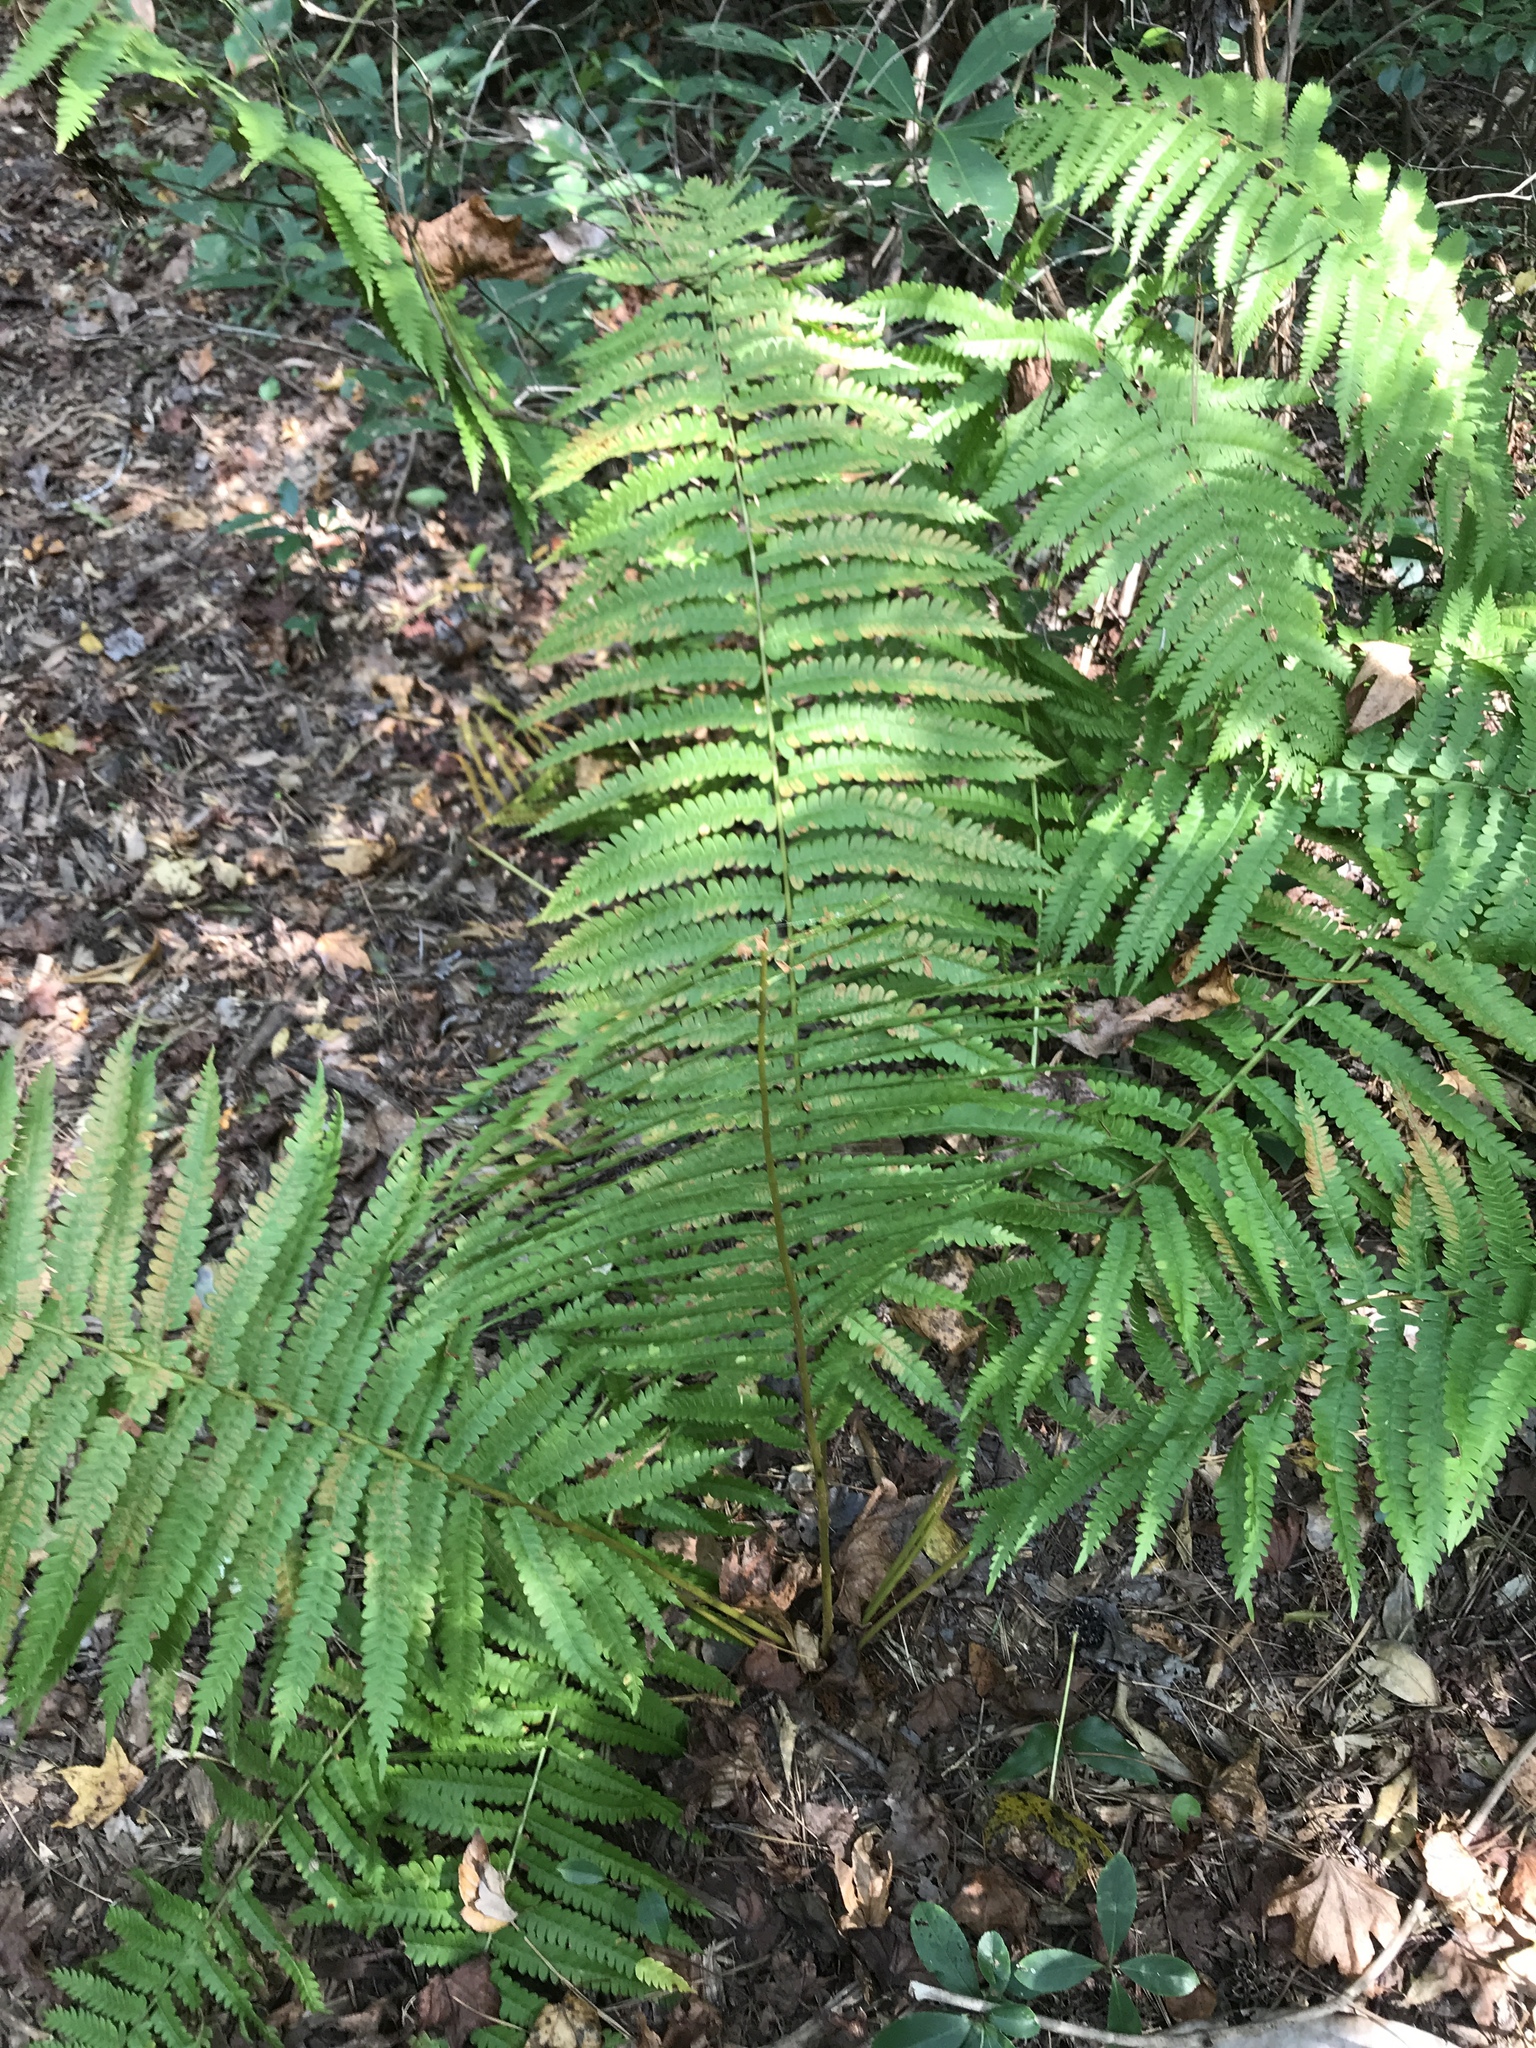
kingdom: Plantae
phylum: Tracheophyta
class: Polypodiopsida
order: Osmundales
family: Osmundaceae
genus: Osmundastrum
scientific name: Osmundastrum cinnamomeum
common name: Cinnamon fern
